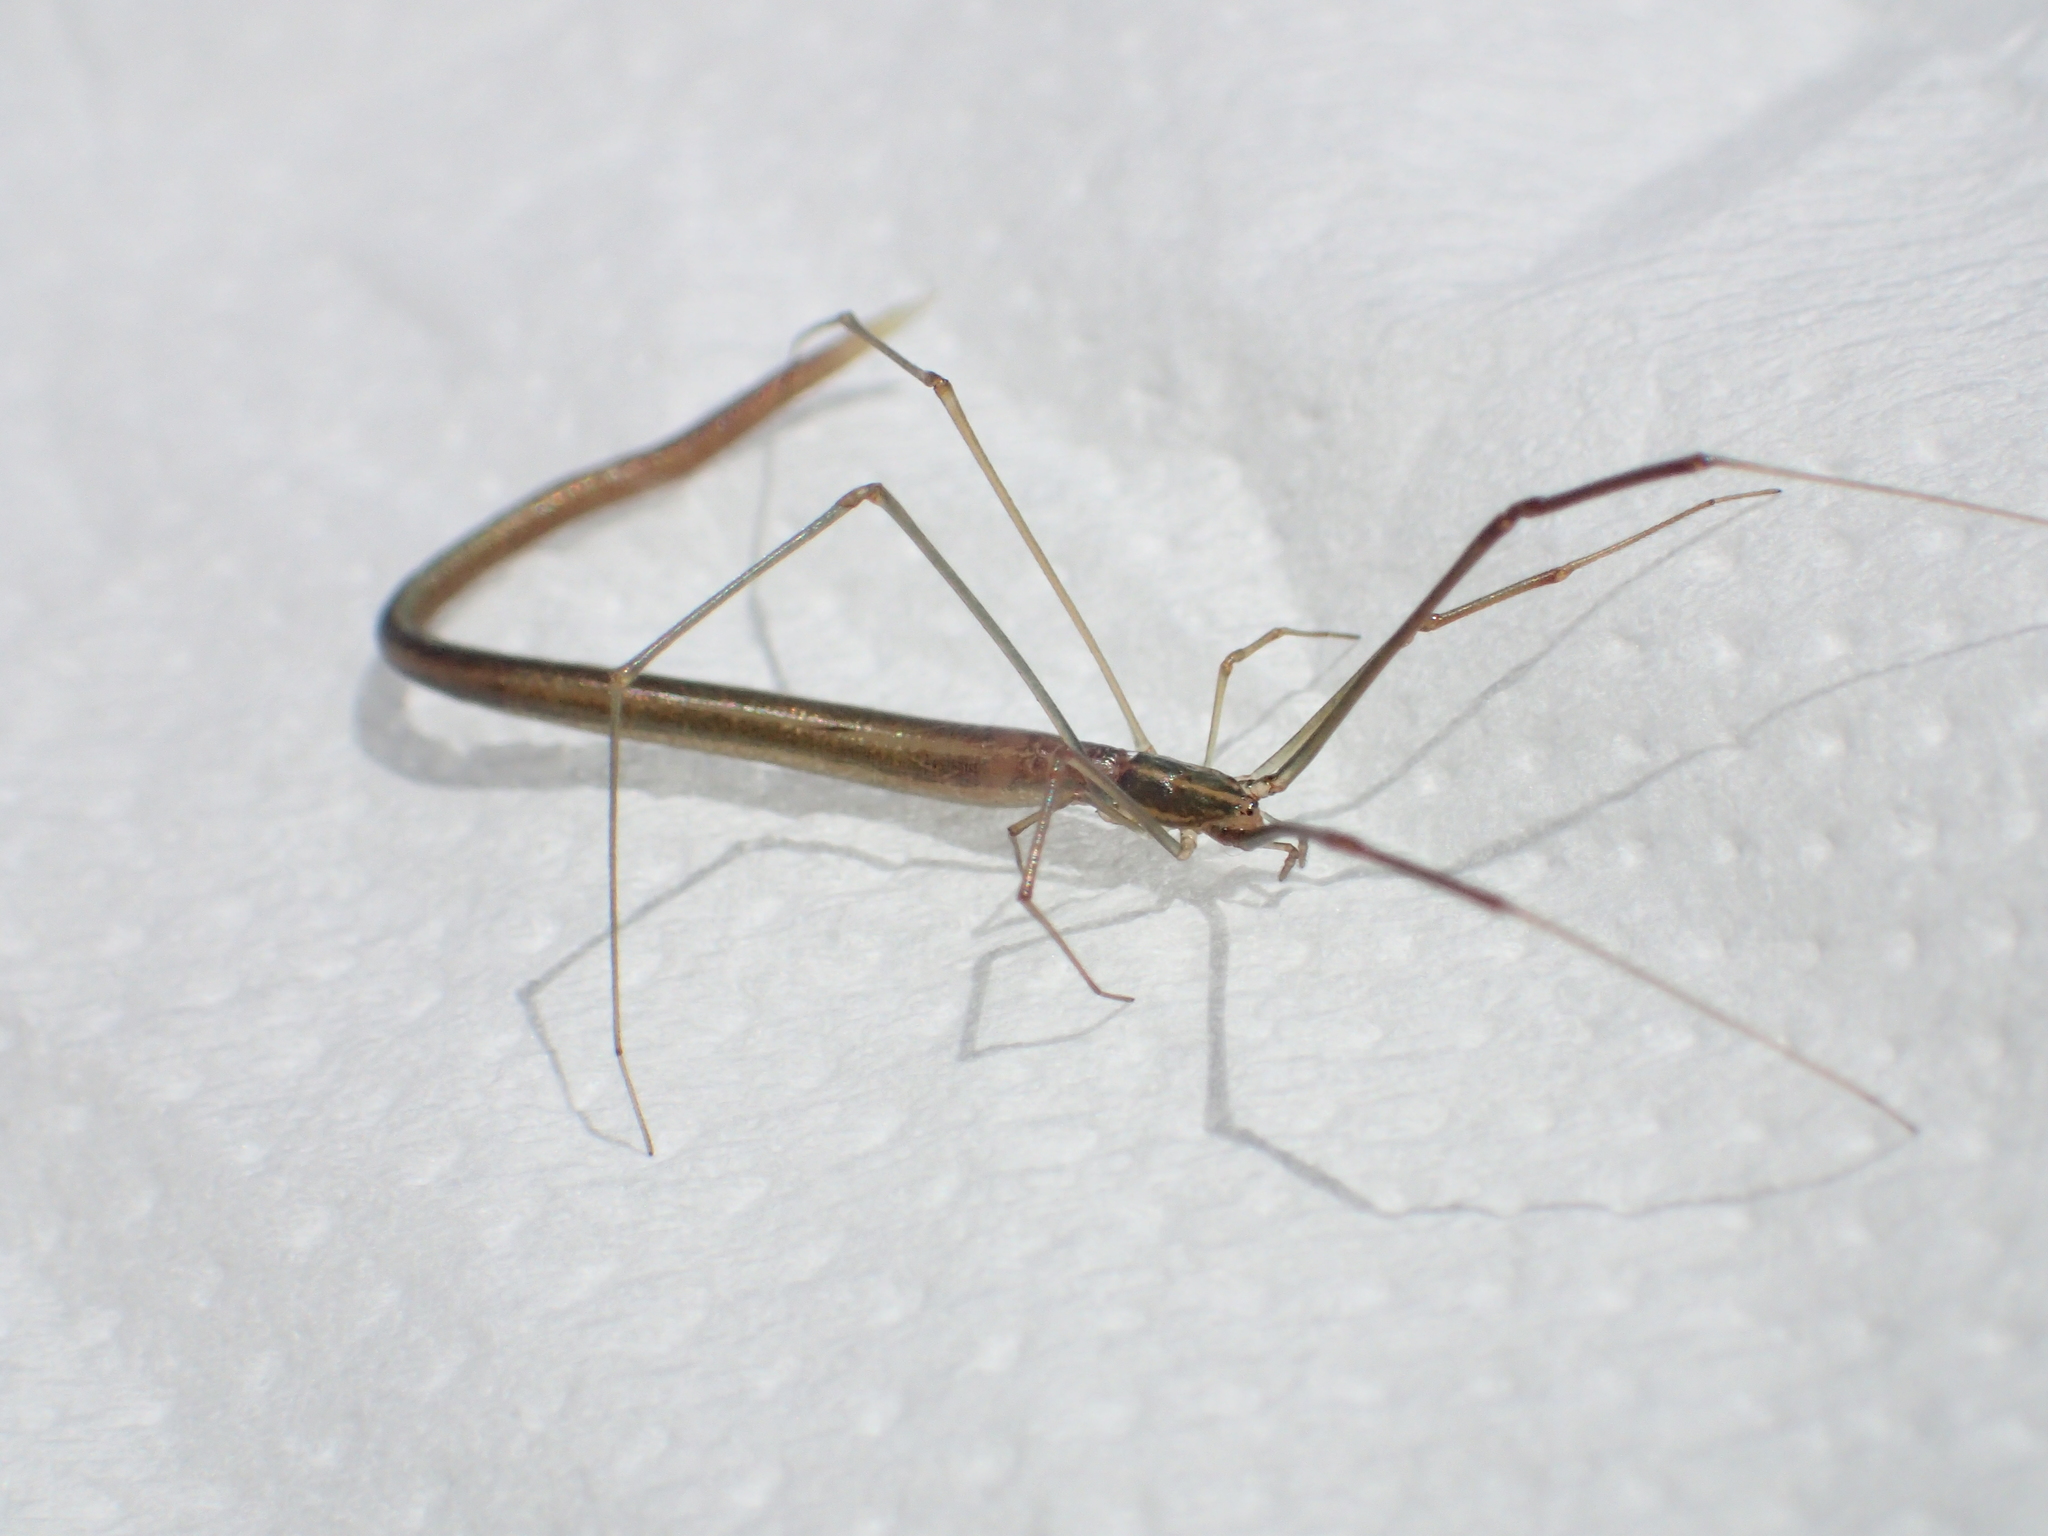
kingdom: Animalia
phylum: Arthropoda
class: Arachnida
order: Araneae
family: Theridiidae
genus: Ariamnes
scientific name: Ariamnes cylindrogaster
